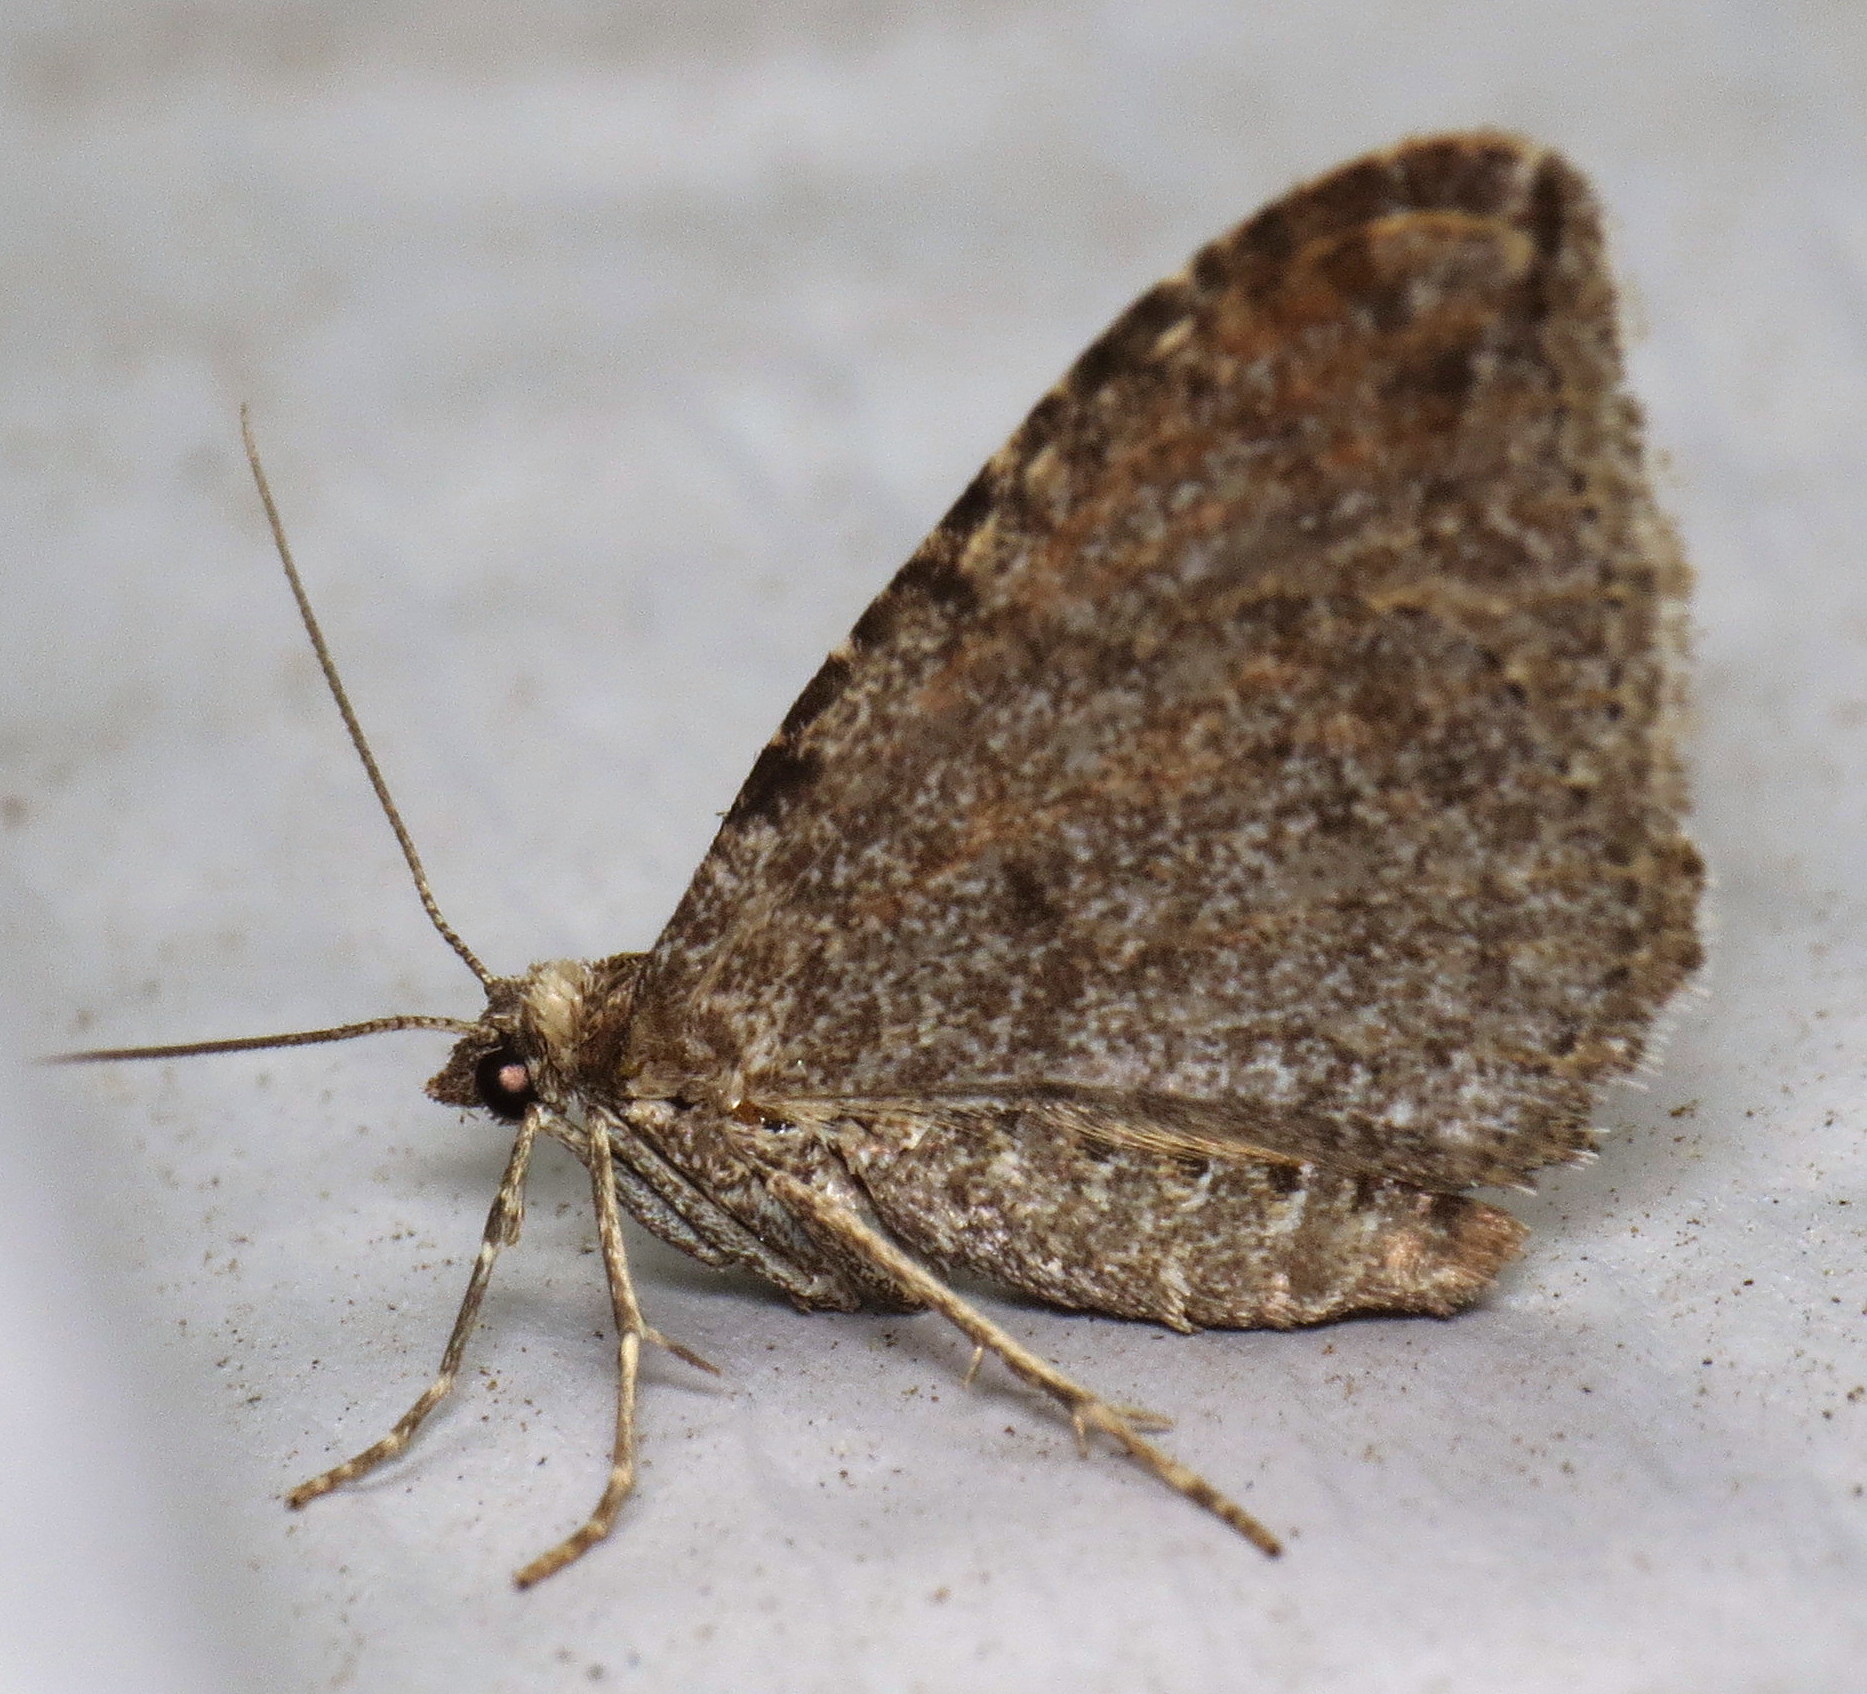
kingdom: Animalia
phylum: Arthropoda
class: Insecta
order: Lepidoptera
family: Geometridae
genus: Orthonama
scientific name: Orthonama obstipata
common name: The gem
